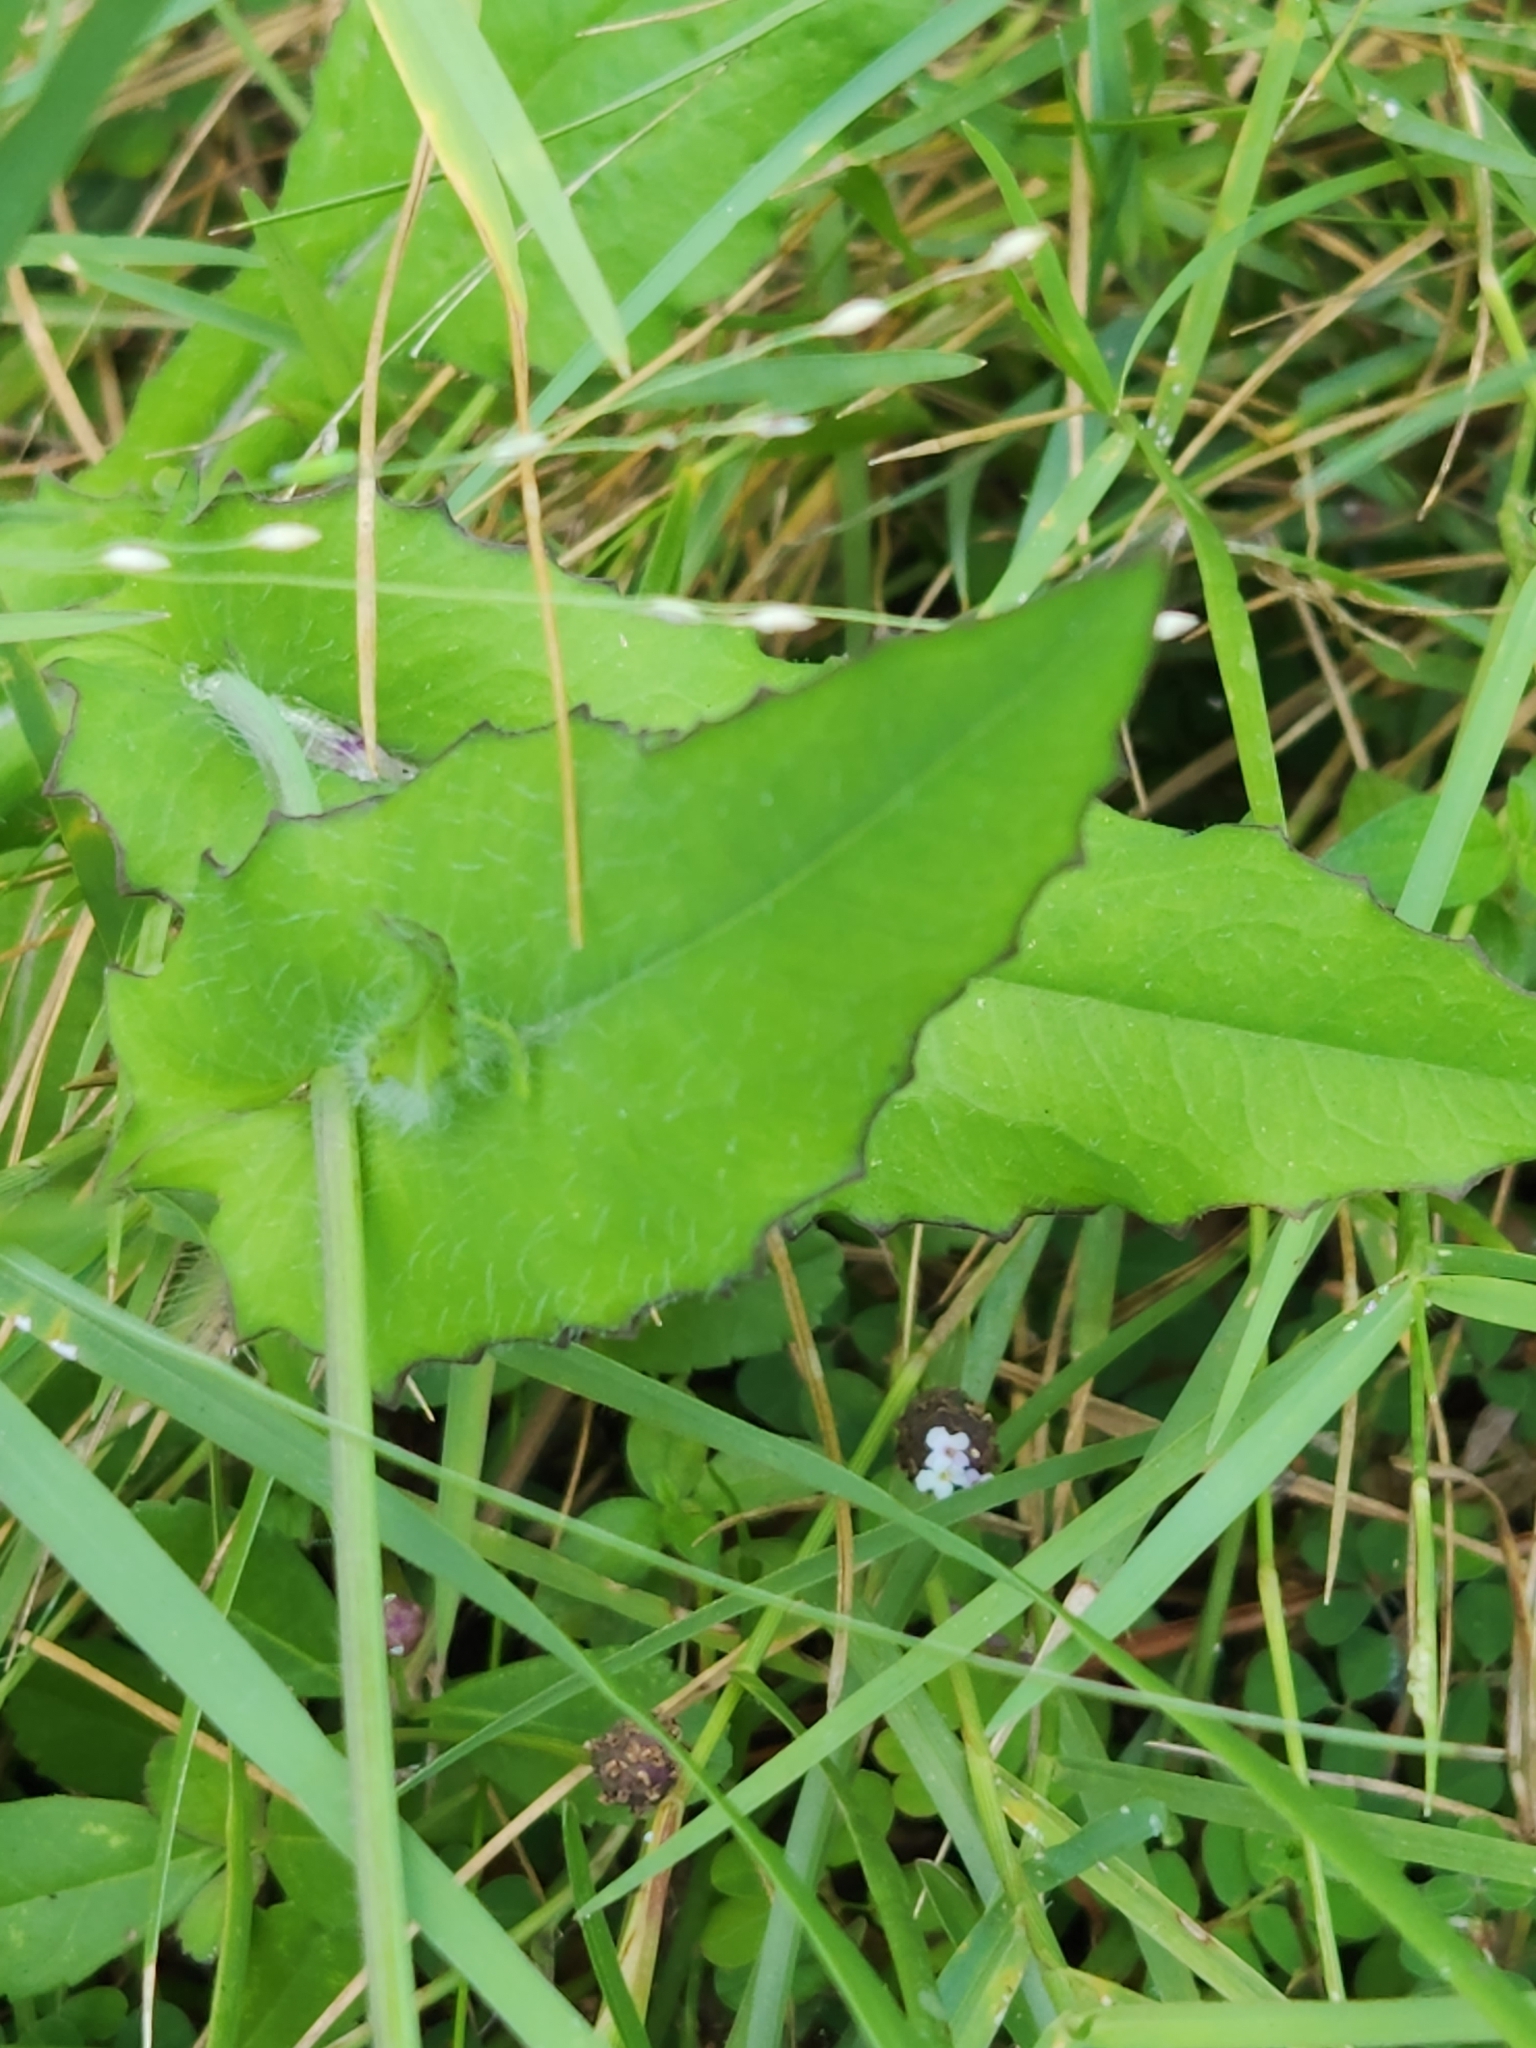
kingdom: Plantae
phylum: Tracheophyta
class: Magnoliopsida
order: Asterales
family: Asteraceae
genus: Emilia
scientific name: Emilia fosbergii
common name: Florida tasselflower
